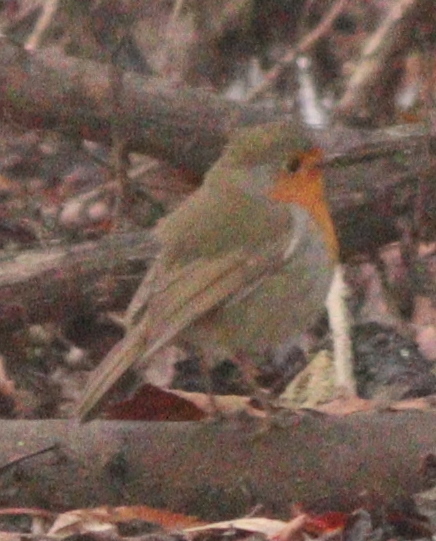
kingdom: Animalia
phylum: Chordata
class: Aves
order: Passeriformes
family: Muscicapidae
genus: Erithacus
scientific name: Erithacus rubecula
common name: European robin
